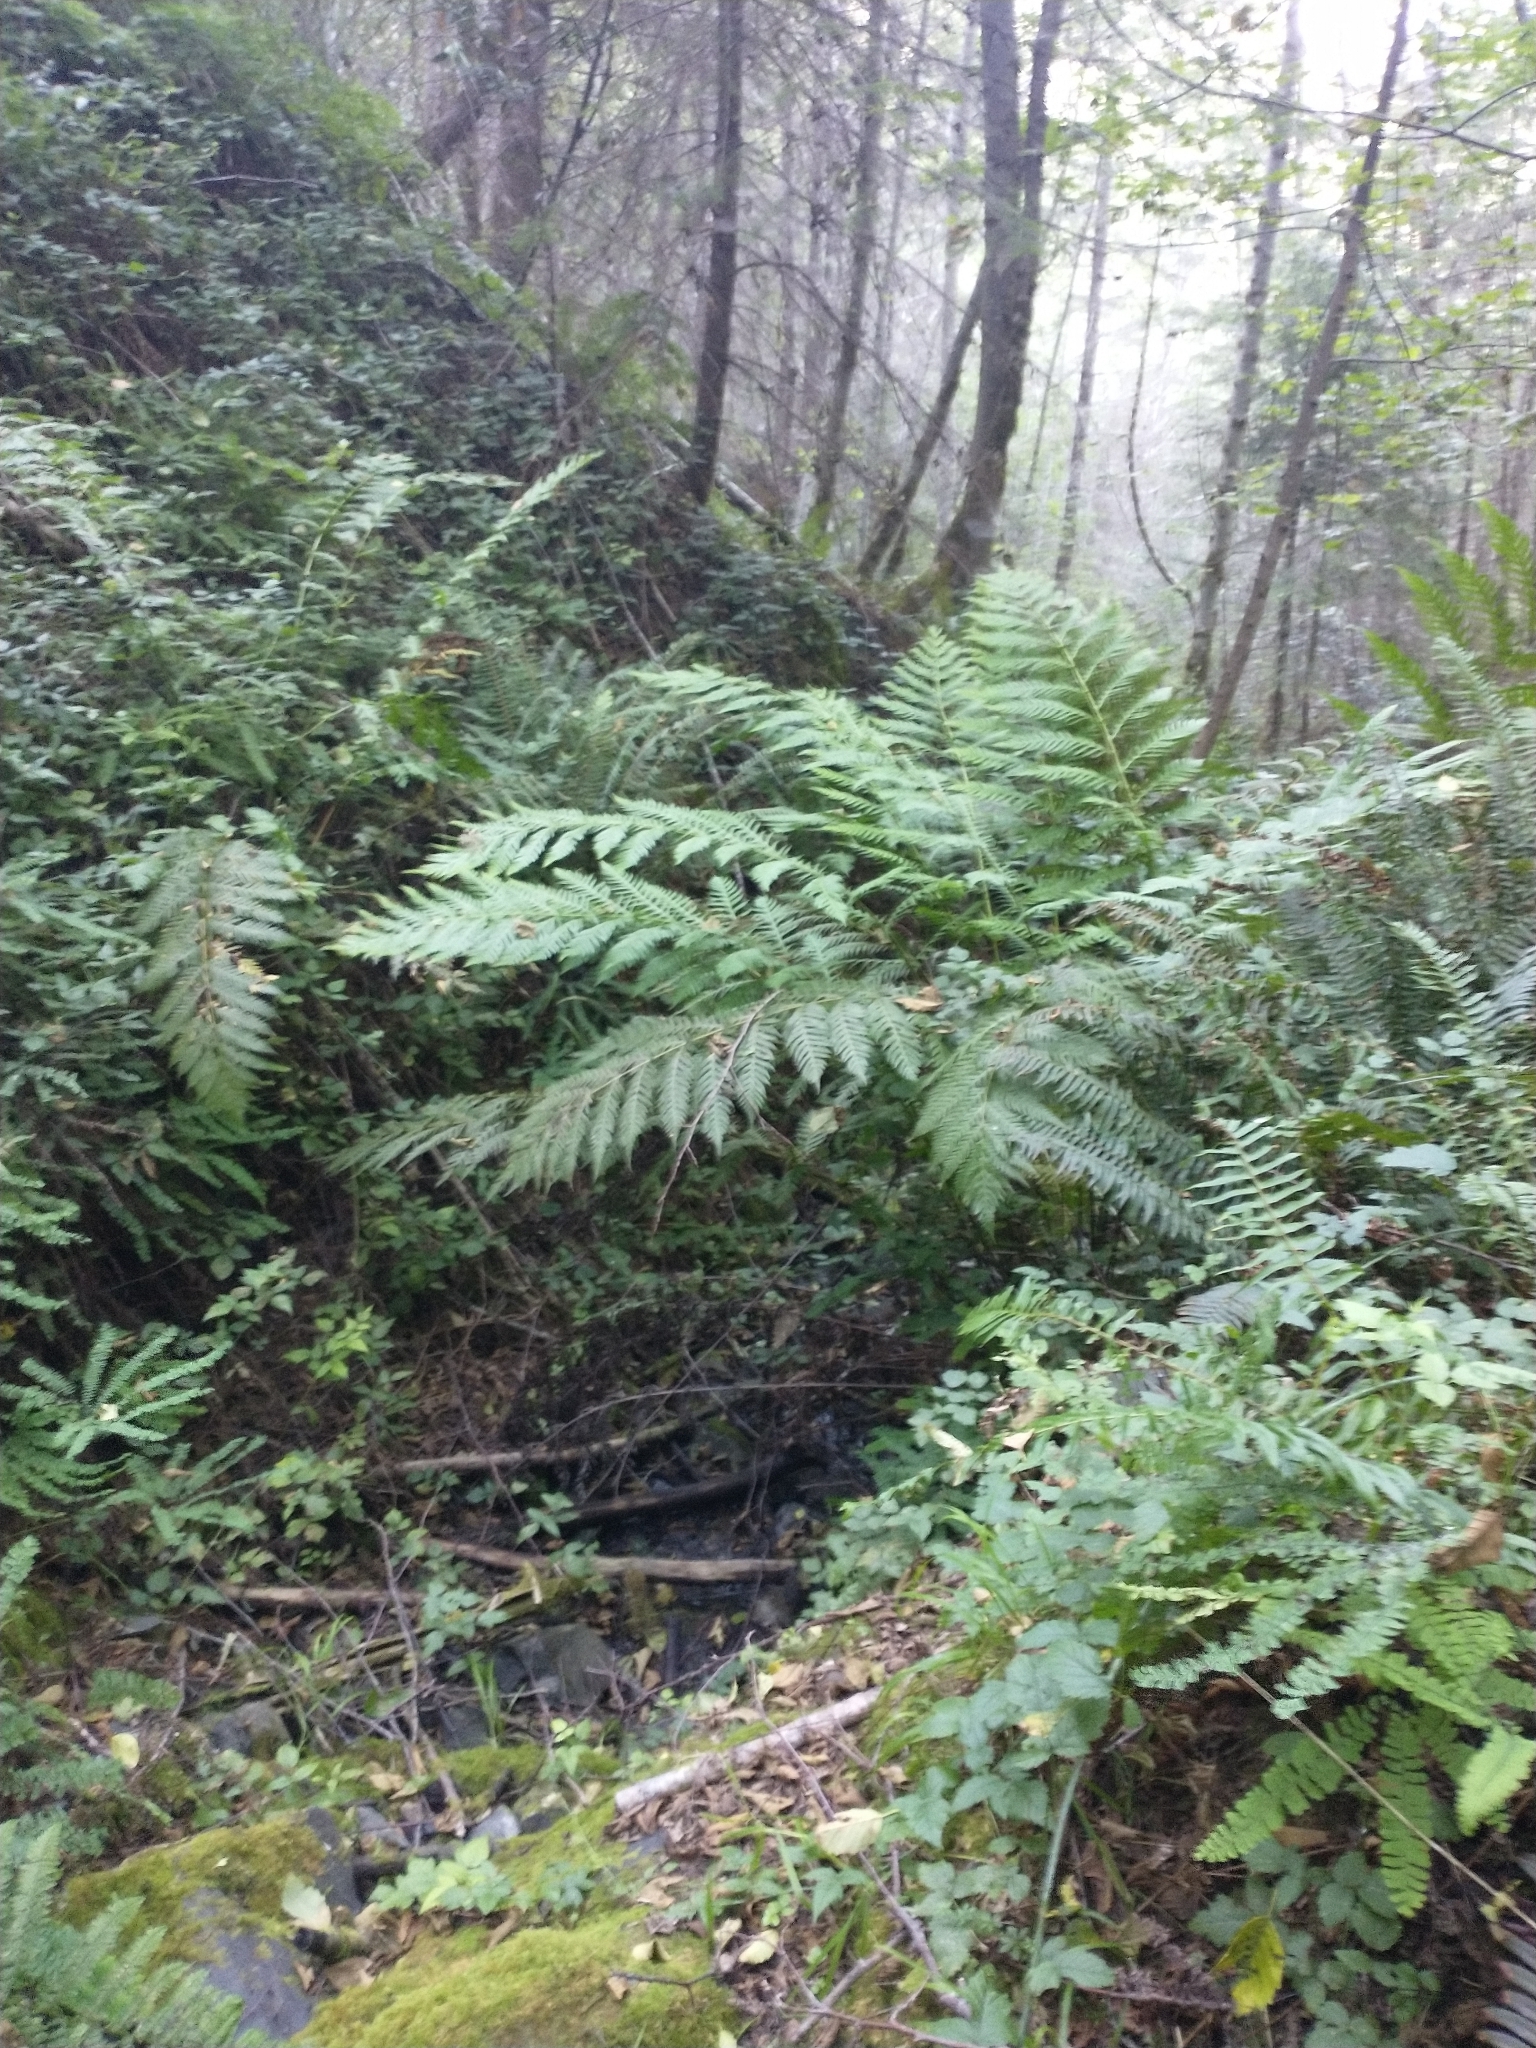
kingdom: Plantae
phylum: Tracheophyta
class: Polypodiopsida
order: Polypodiales
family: Blechnaceae
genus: Woodwardia
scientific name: Woodwardia fimbriata
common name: Giant chain fern
